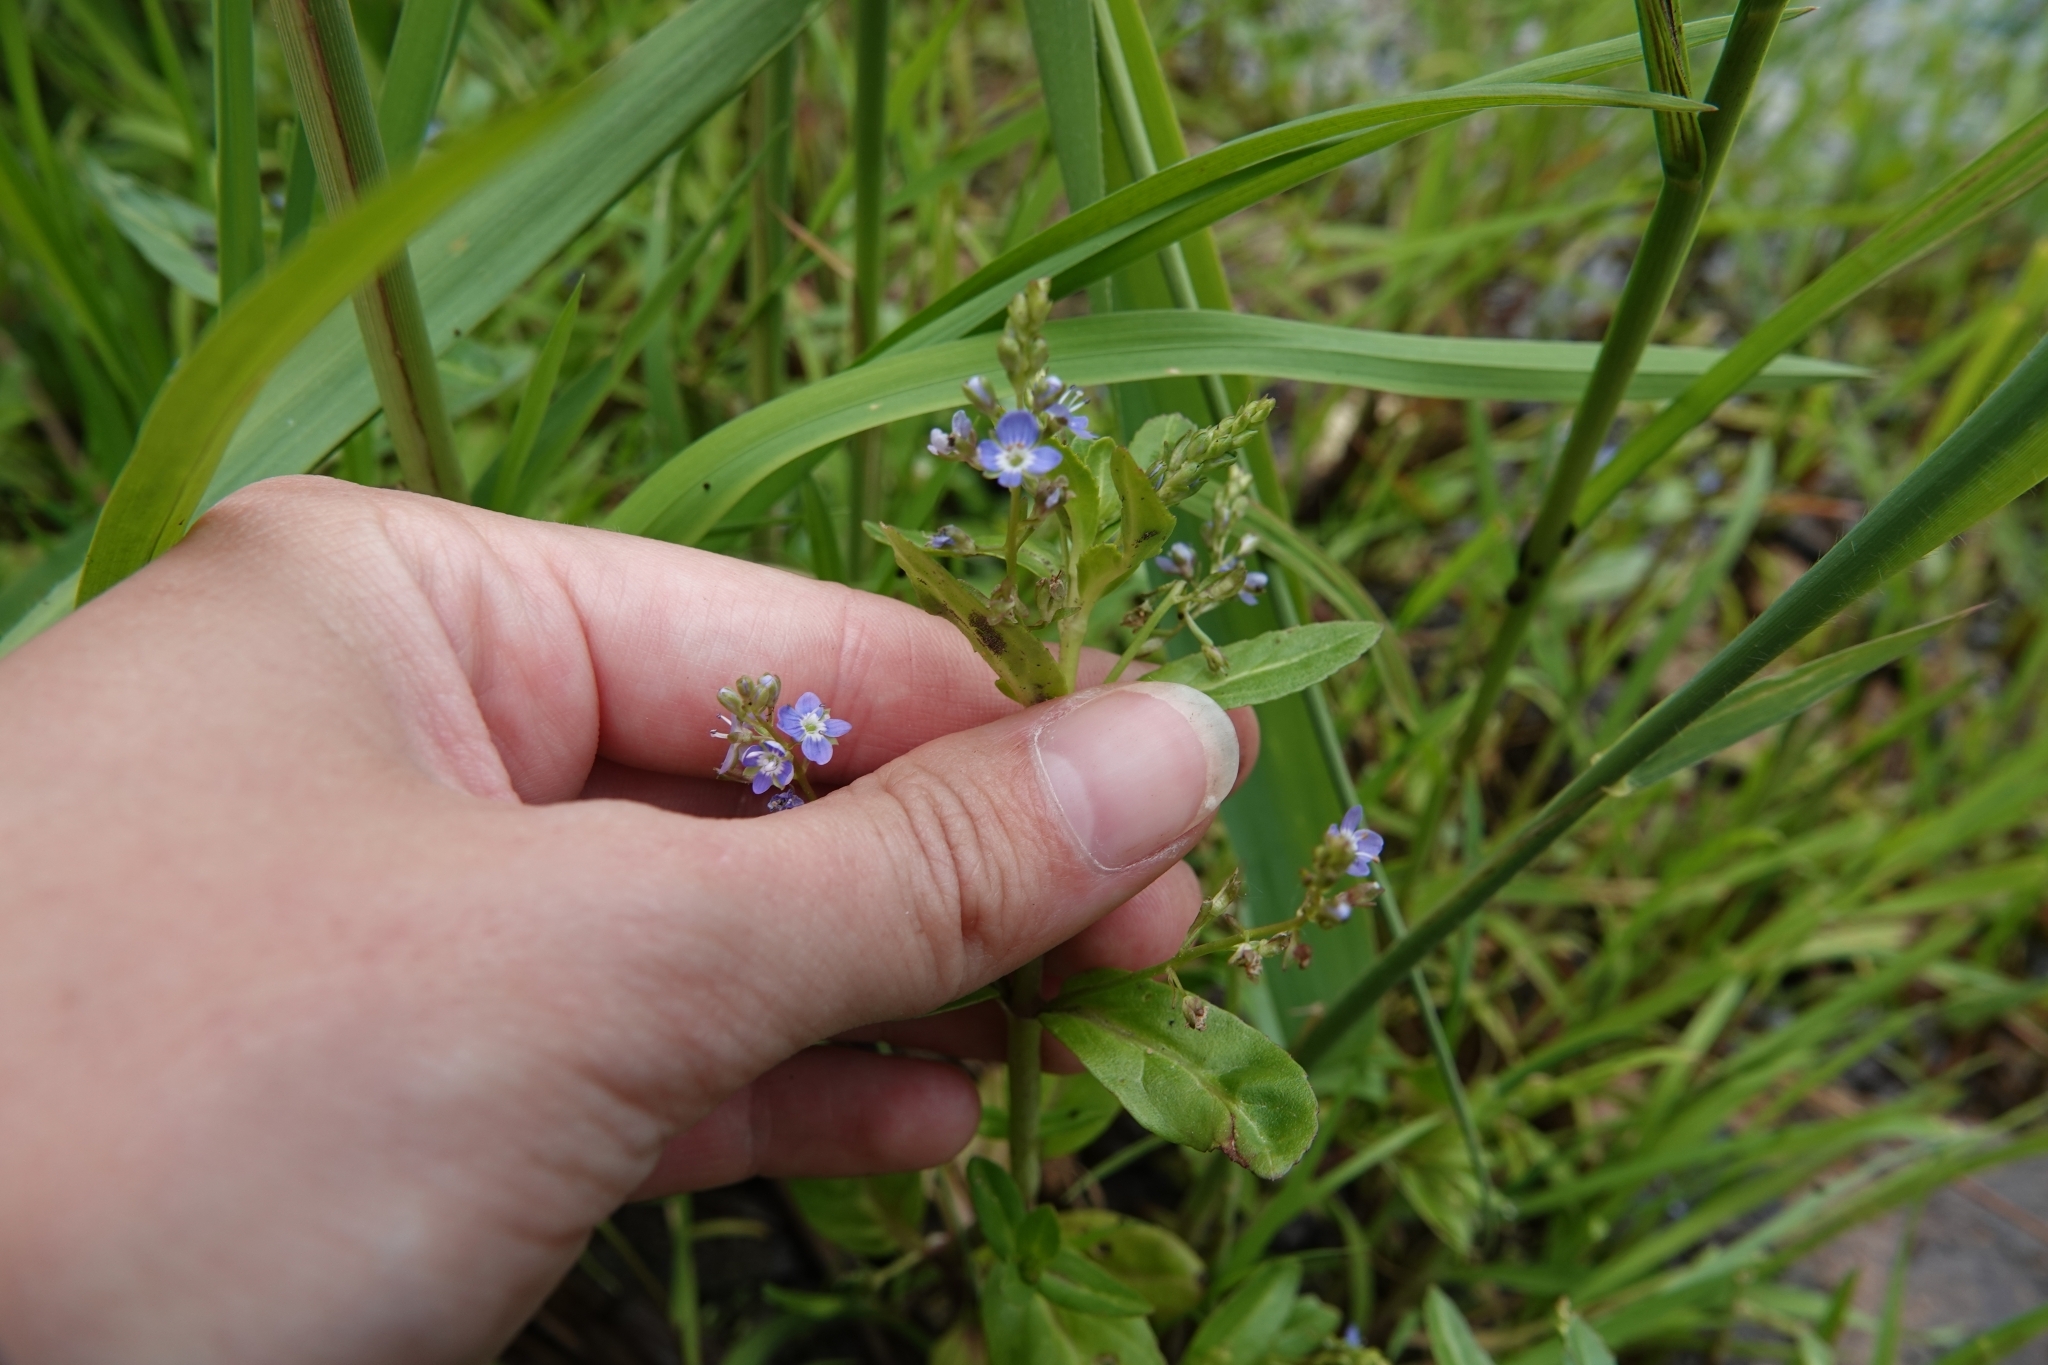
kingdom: Plantae
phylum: Tracheophyta
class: Magnoliopsida
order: Lamiales
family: Plantaginaceae
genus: Veronica
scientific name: Veronica beccabunga
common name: Brooklime
